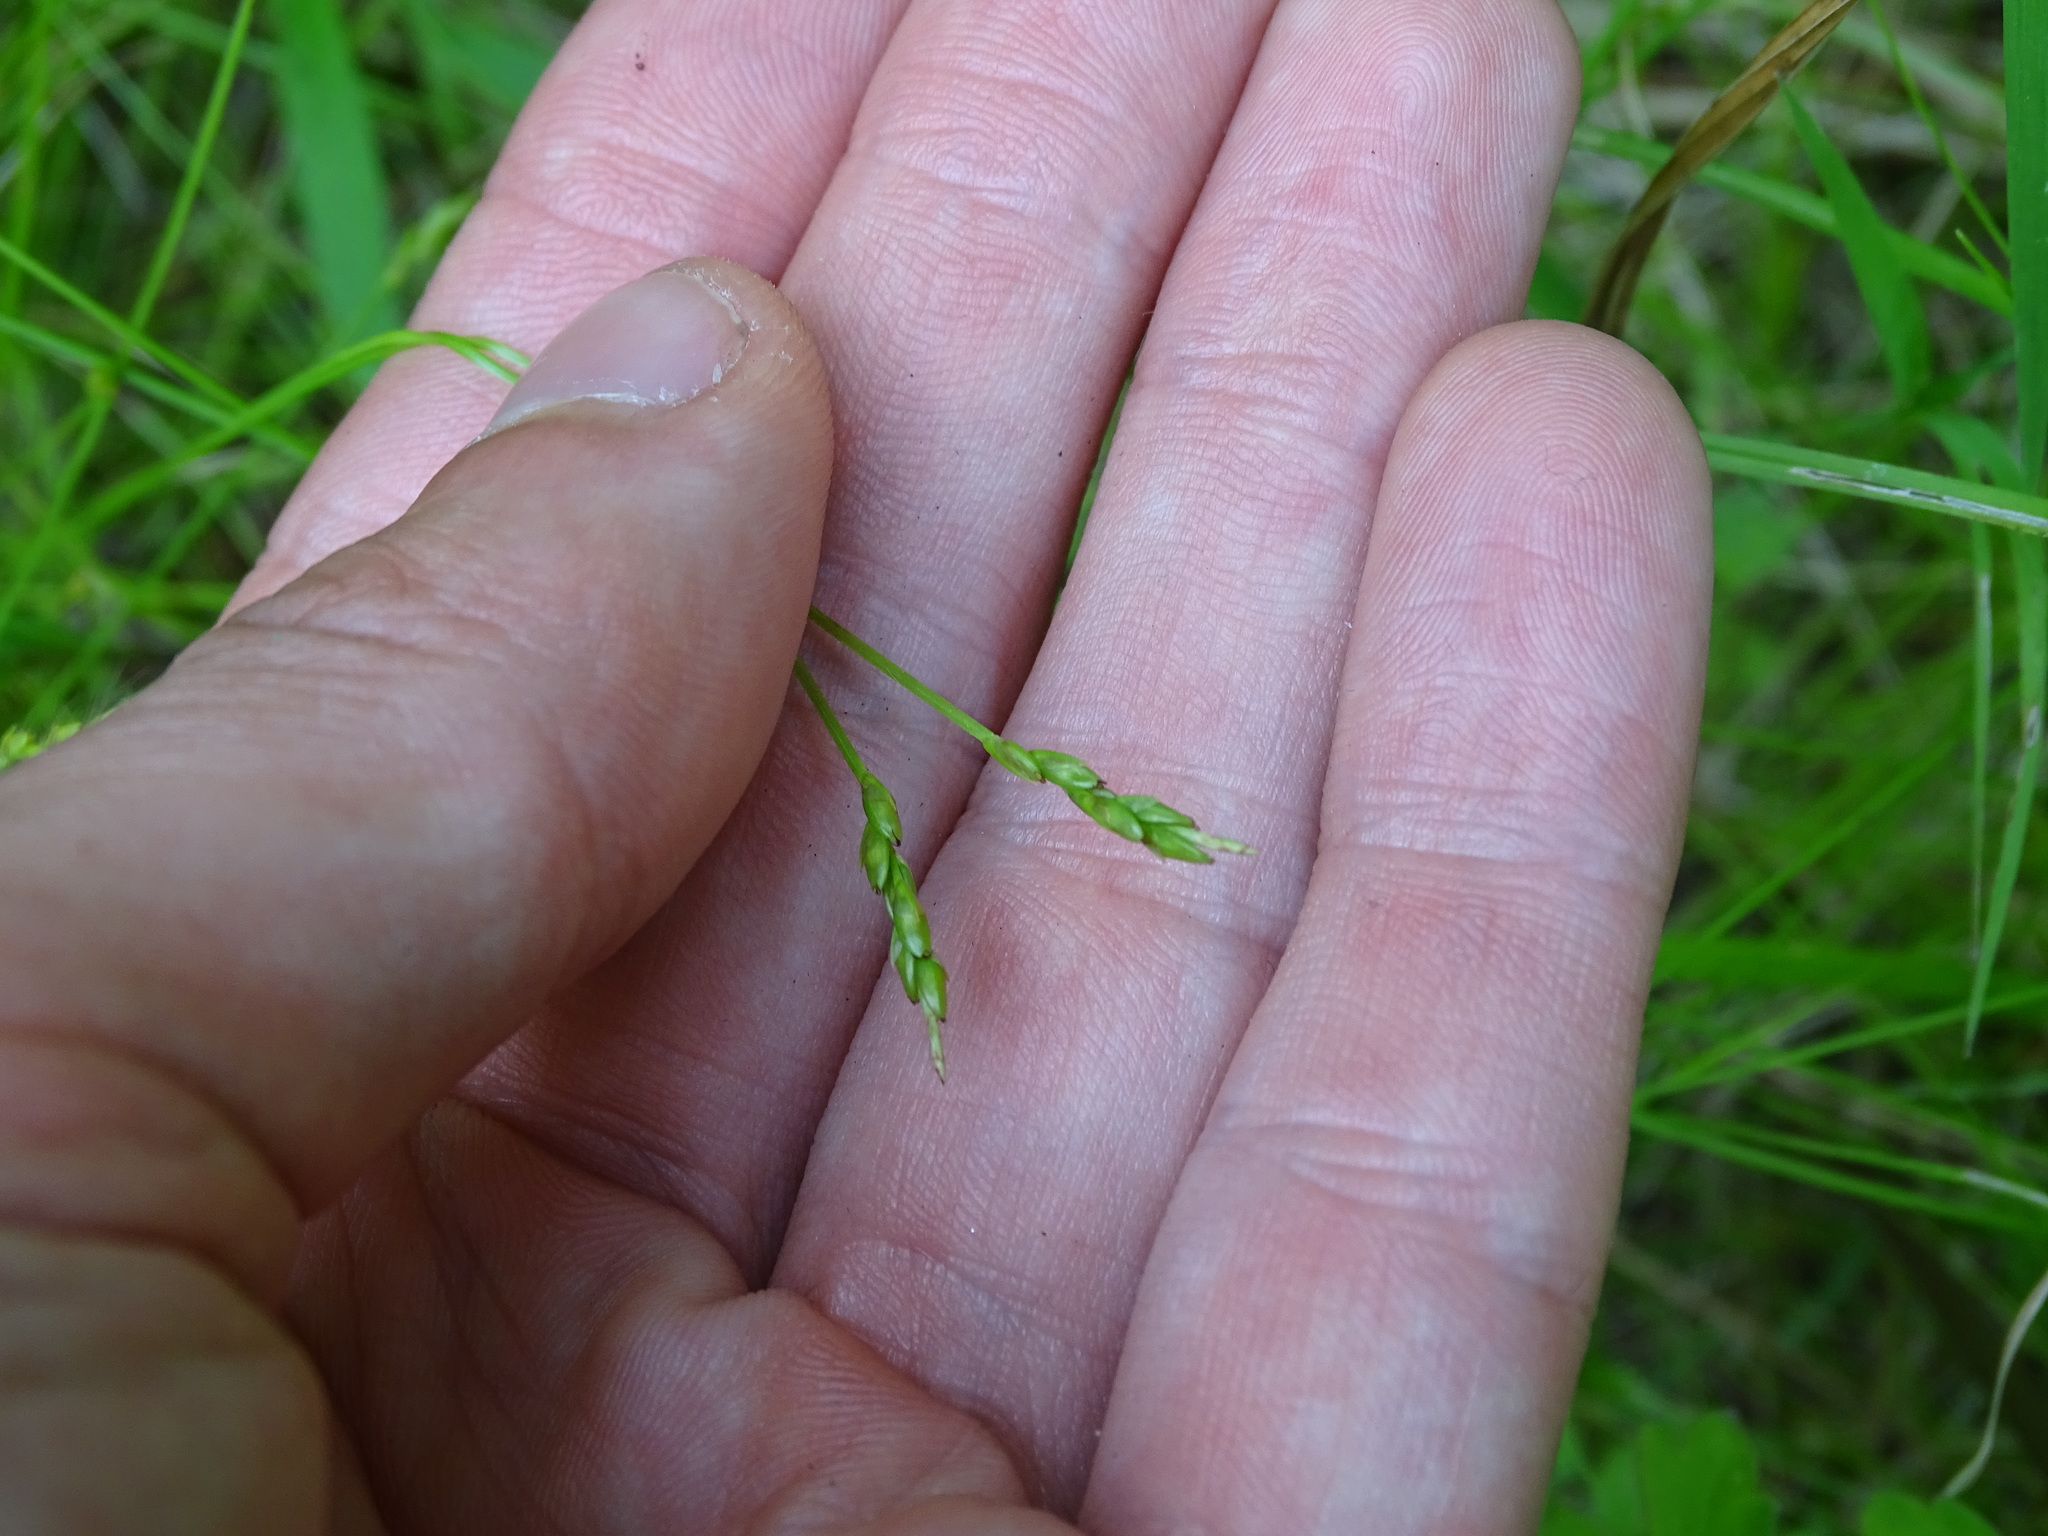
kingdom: Plantae
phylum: Tracheophyta
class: Liliopsida
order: Poales
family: Cyperaceae
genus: Carex
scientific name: Carex leptalea
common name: Bristly-stalked sedge
